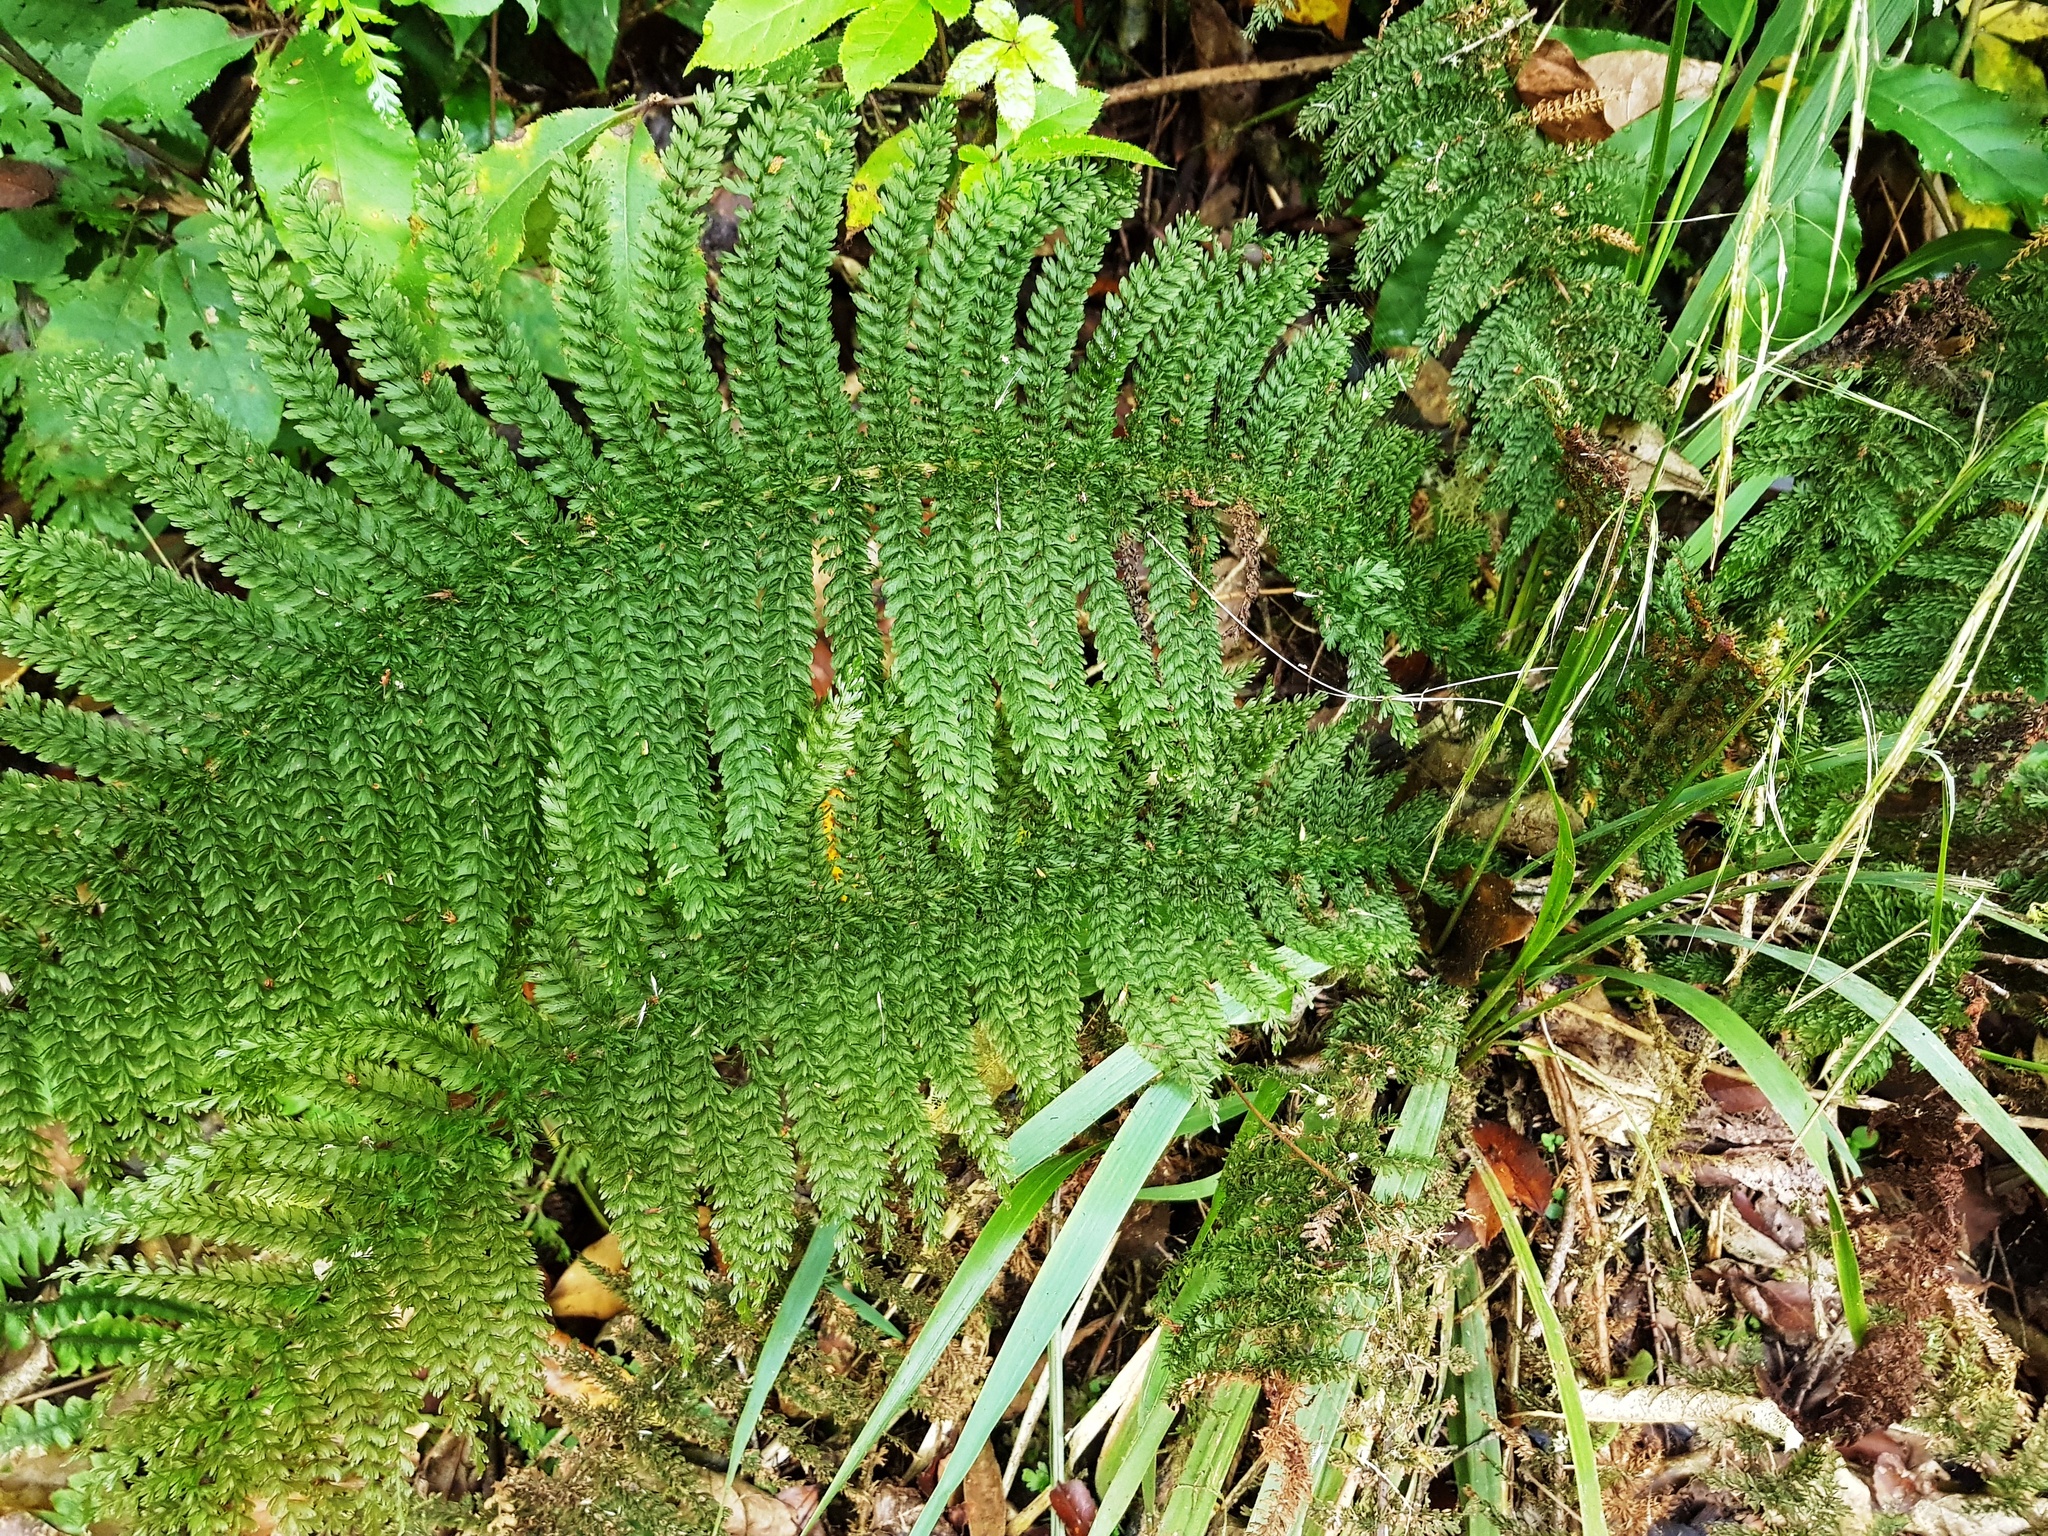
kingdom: Plantae
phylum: Tracheophyta
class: Polypodiopsida
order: Osmundales
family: Osmundaceae
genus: Leptopteris
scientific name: Leptopteris superba
